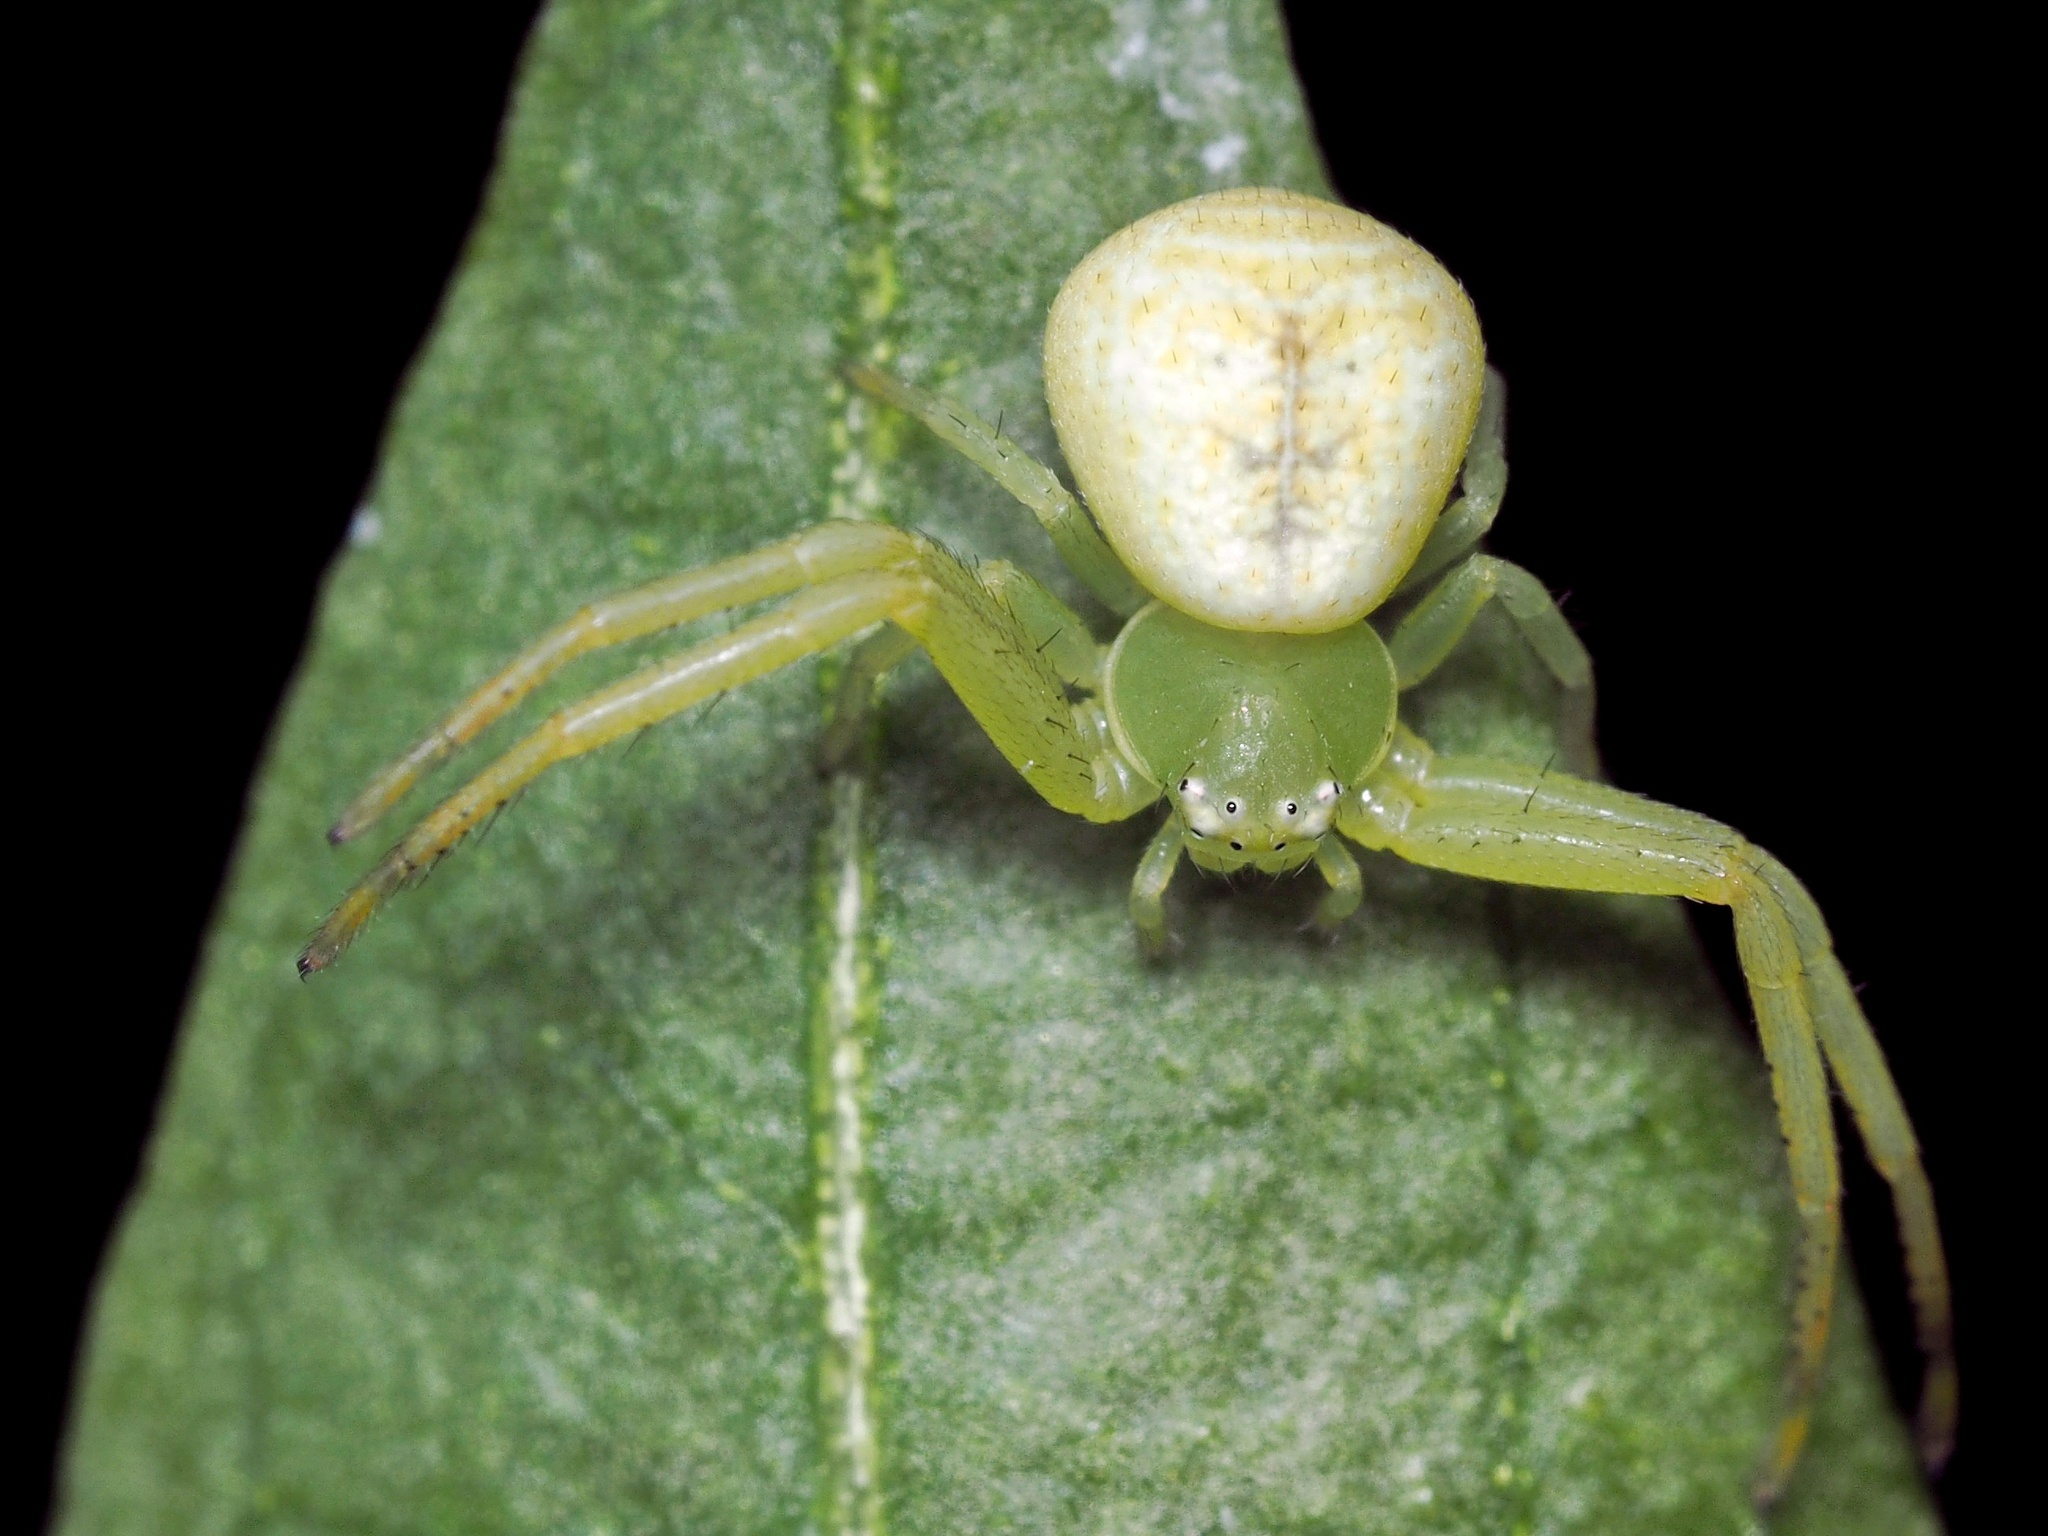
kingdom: Animalia
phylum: Arthropoda
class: Arachnida
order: Araneae
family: Thomisidae
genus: Ebrechtella
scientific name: Ebrechtella tricuspidata
